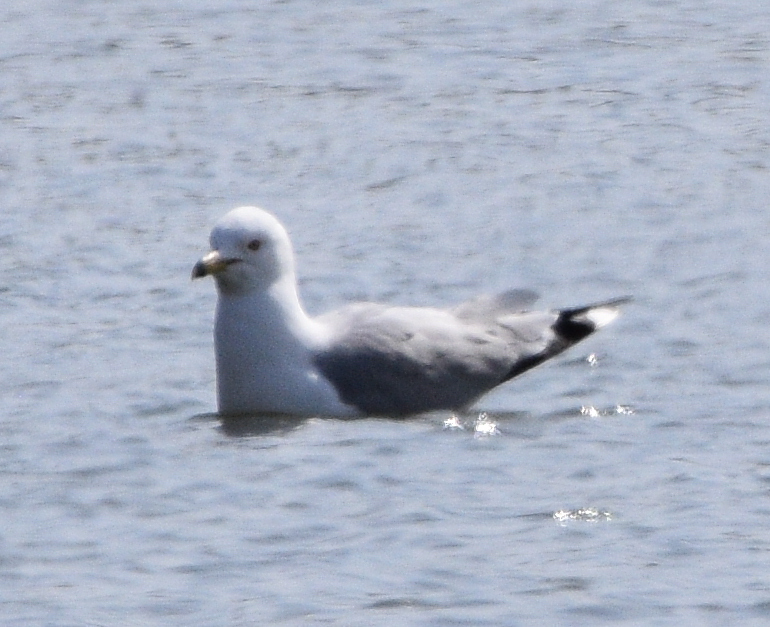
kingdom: Animalia
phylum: Chordata
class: Aves
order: Charadriiformes
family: Laridae
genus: Larus
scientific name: Larus delawarensis
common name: Ring-billed gull
